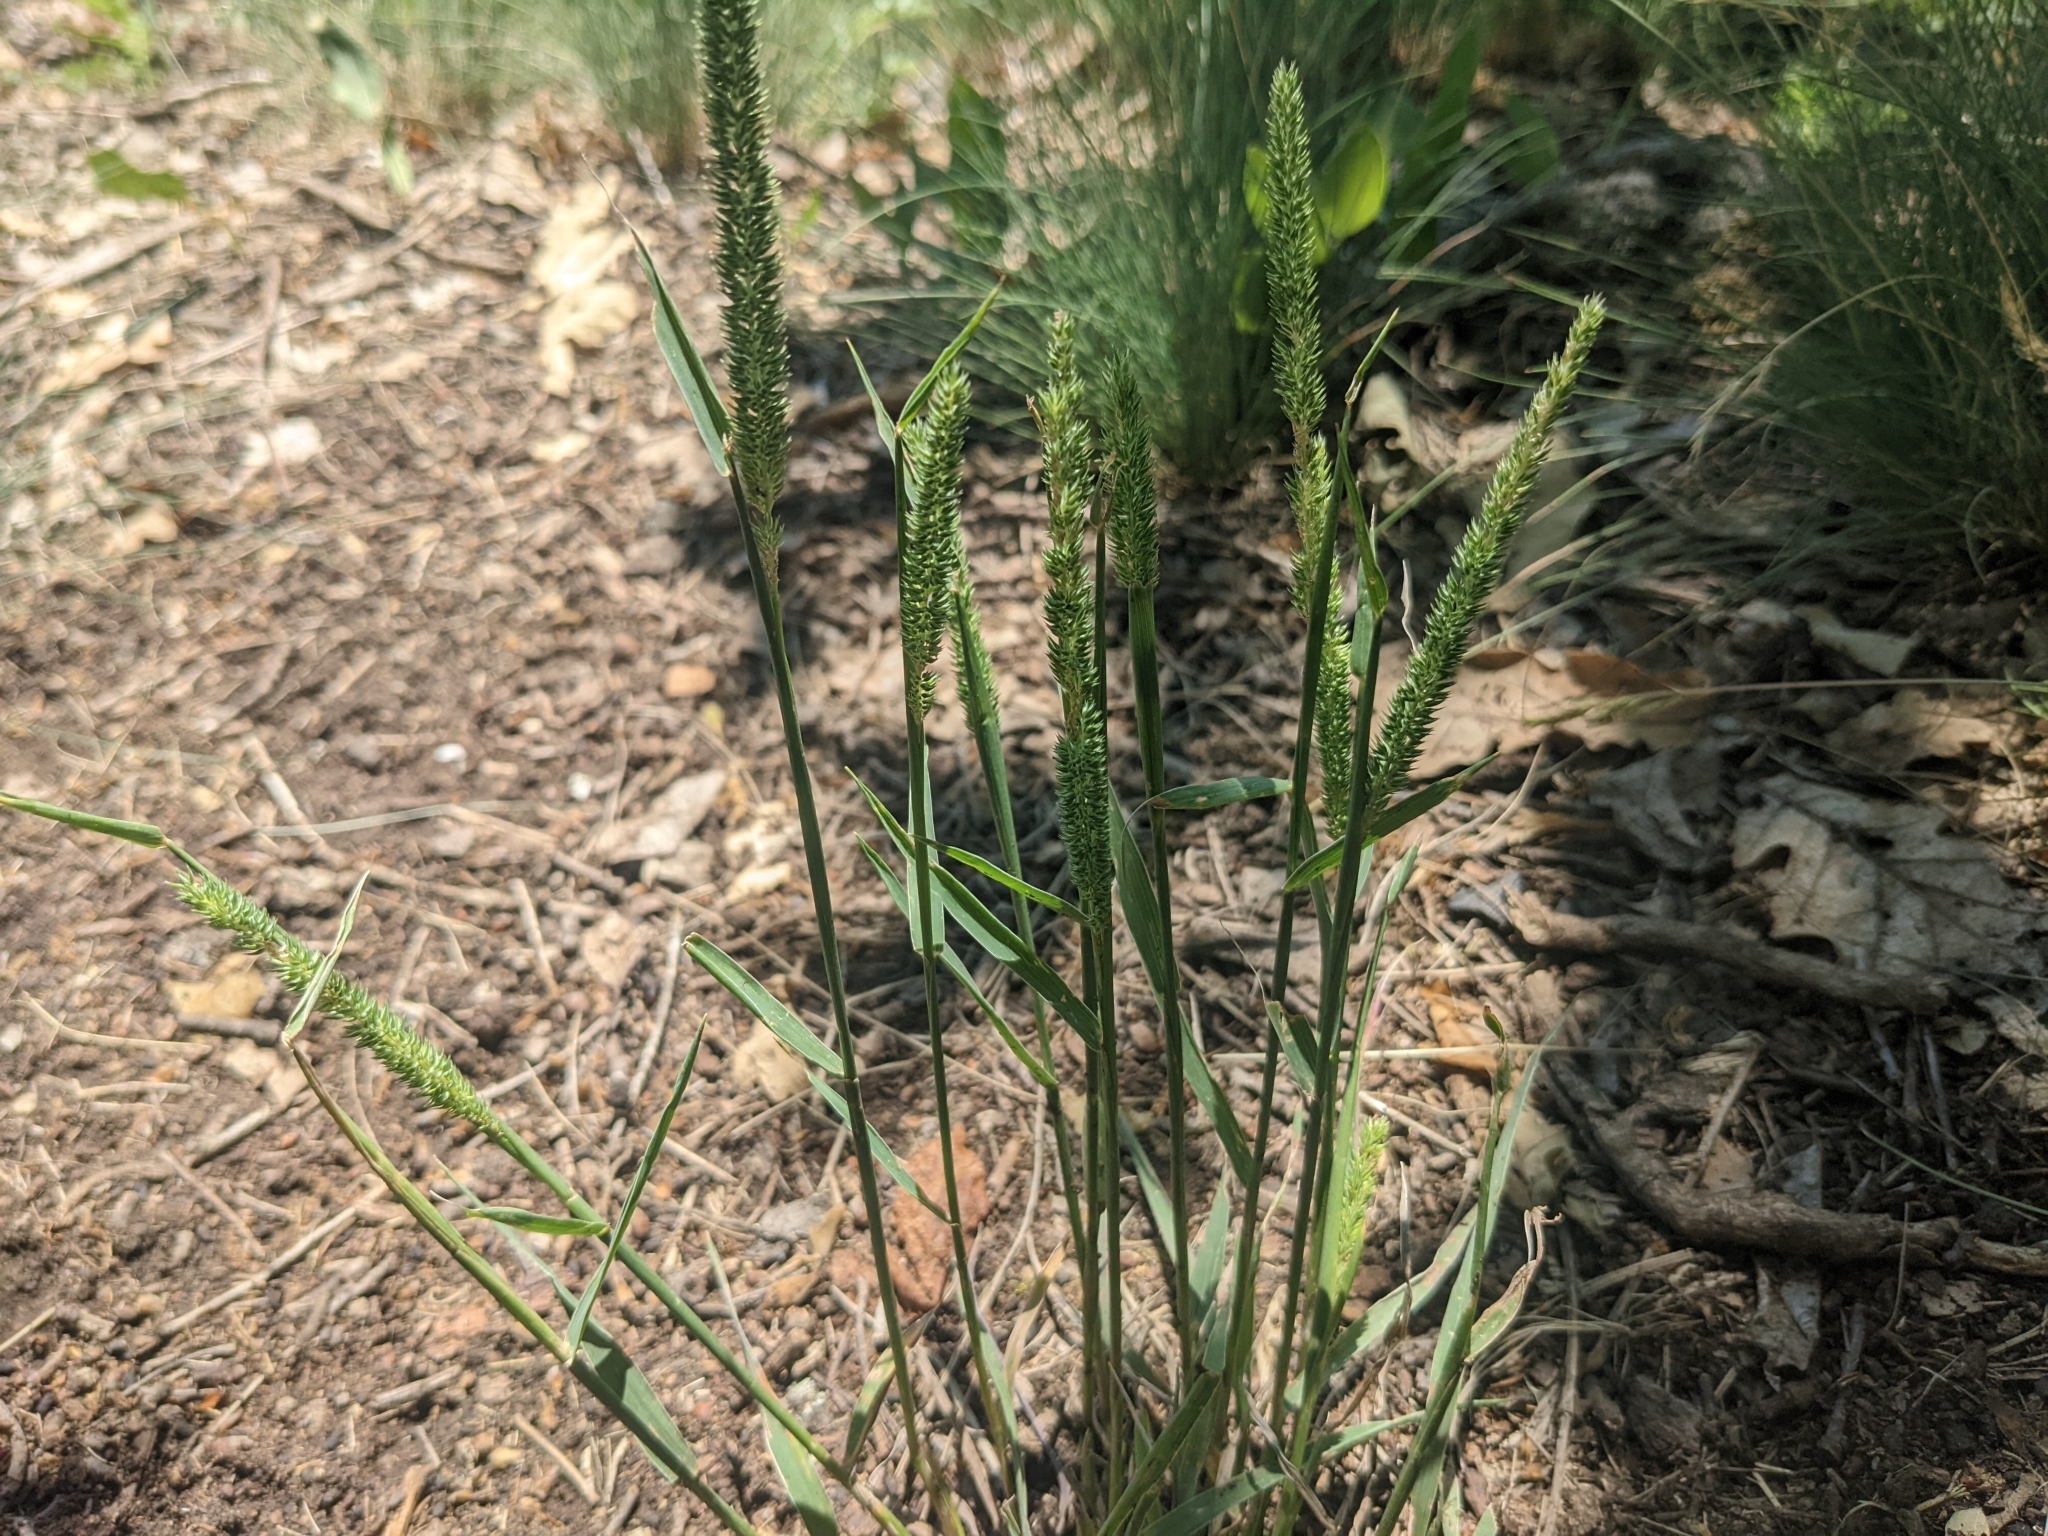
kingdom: Plantae
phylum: Tracheophyta
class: Liliopsida
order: Poales
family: Poaceae
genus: Phleum
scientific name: Phleum phleoides
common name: Purple-stem cat's-tail
